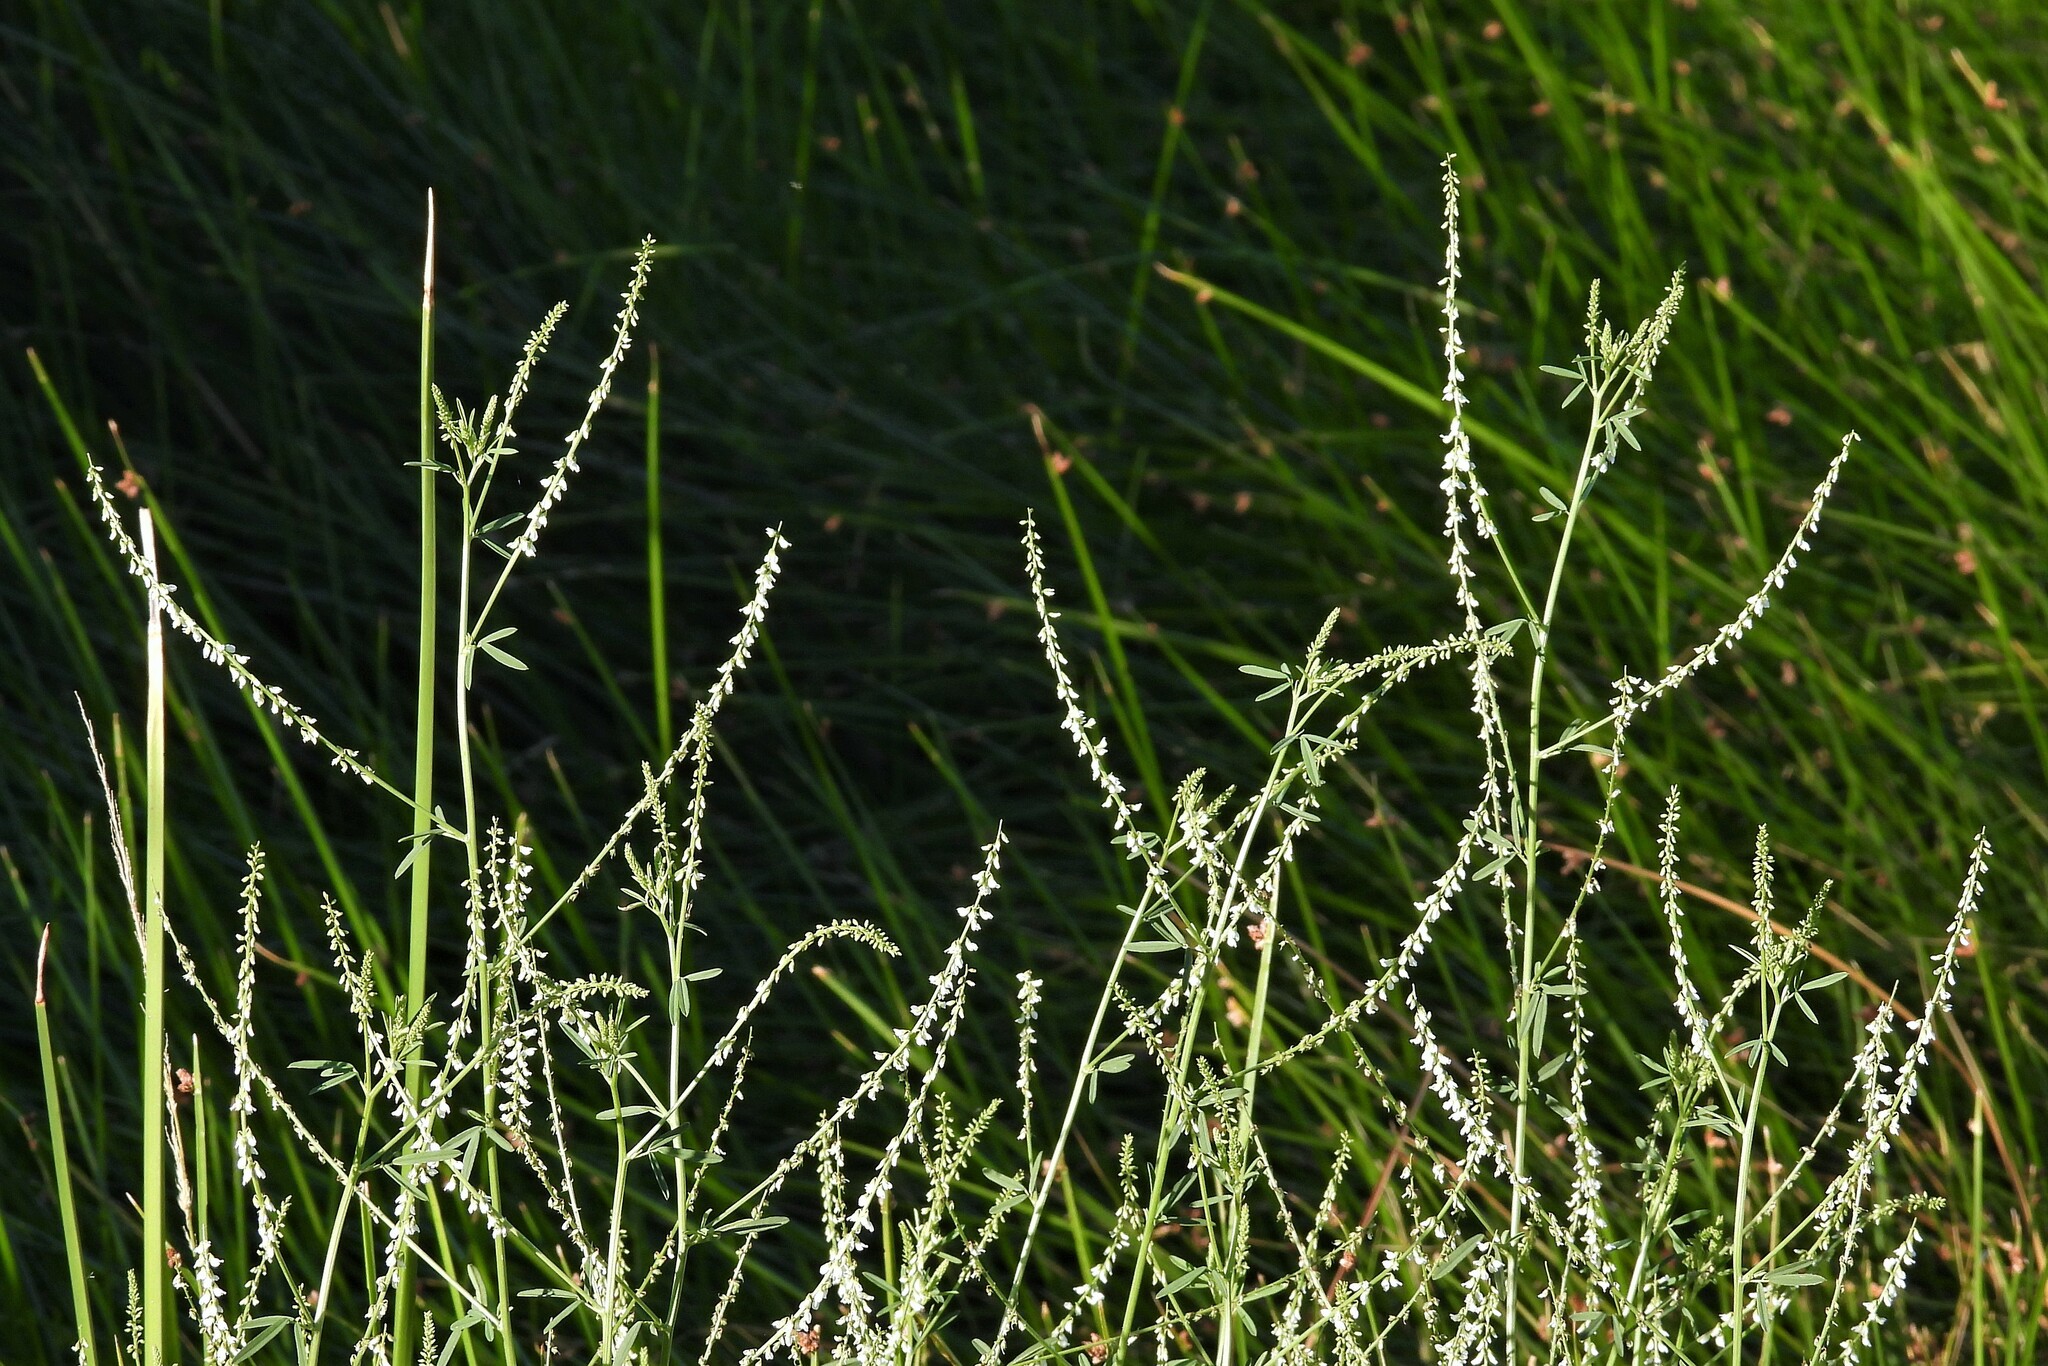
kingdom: Plantae
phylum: Tracheophyta
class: Magnoliopsida
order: Fabales
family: Fabaceae
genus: Melilotus
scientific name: Melilotus albus
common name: White melilot
